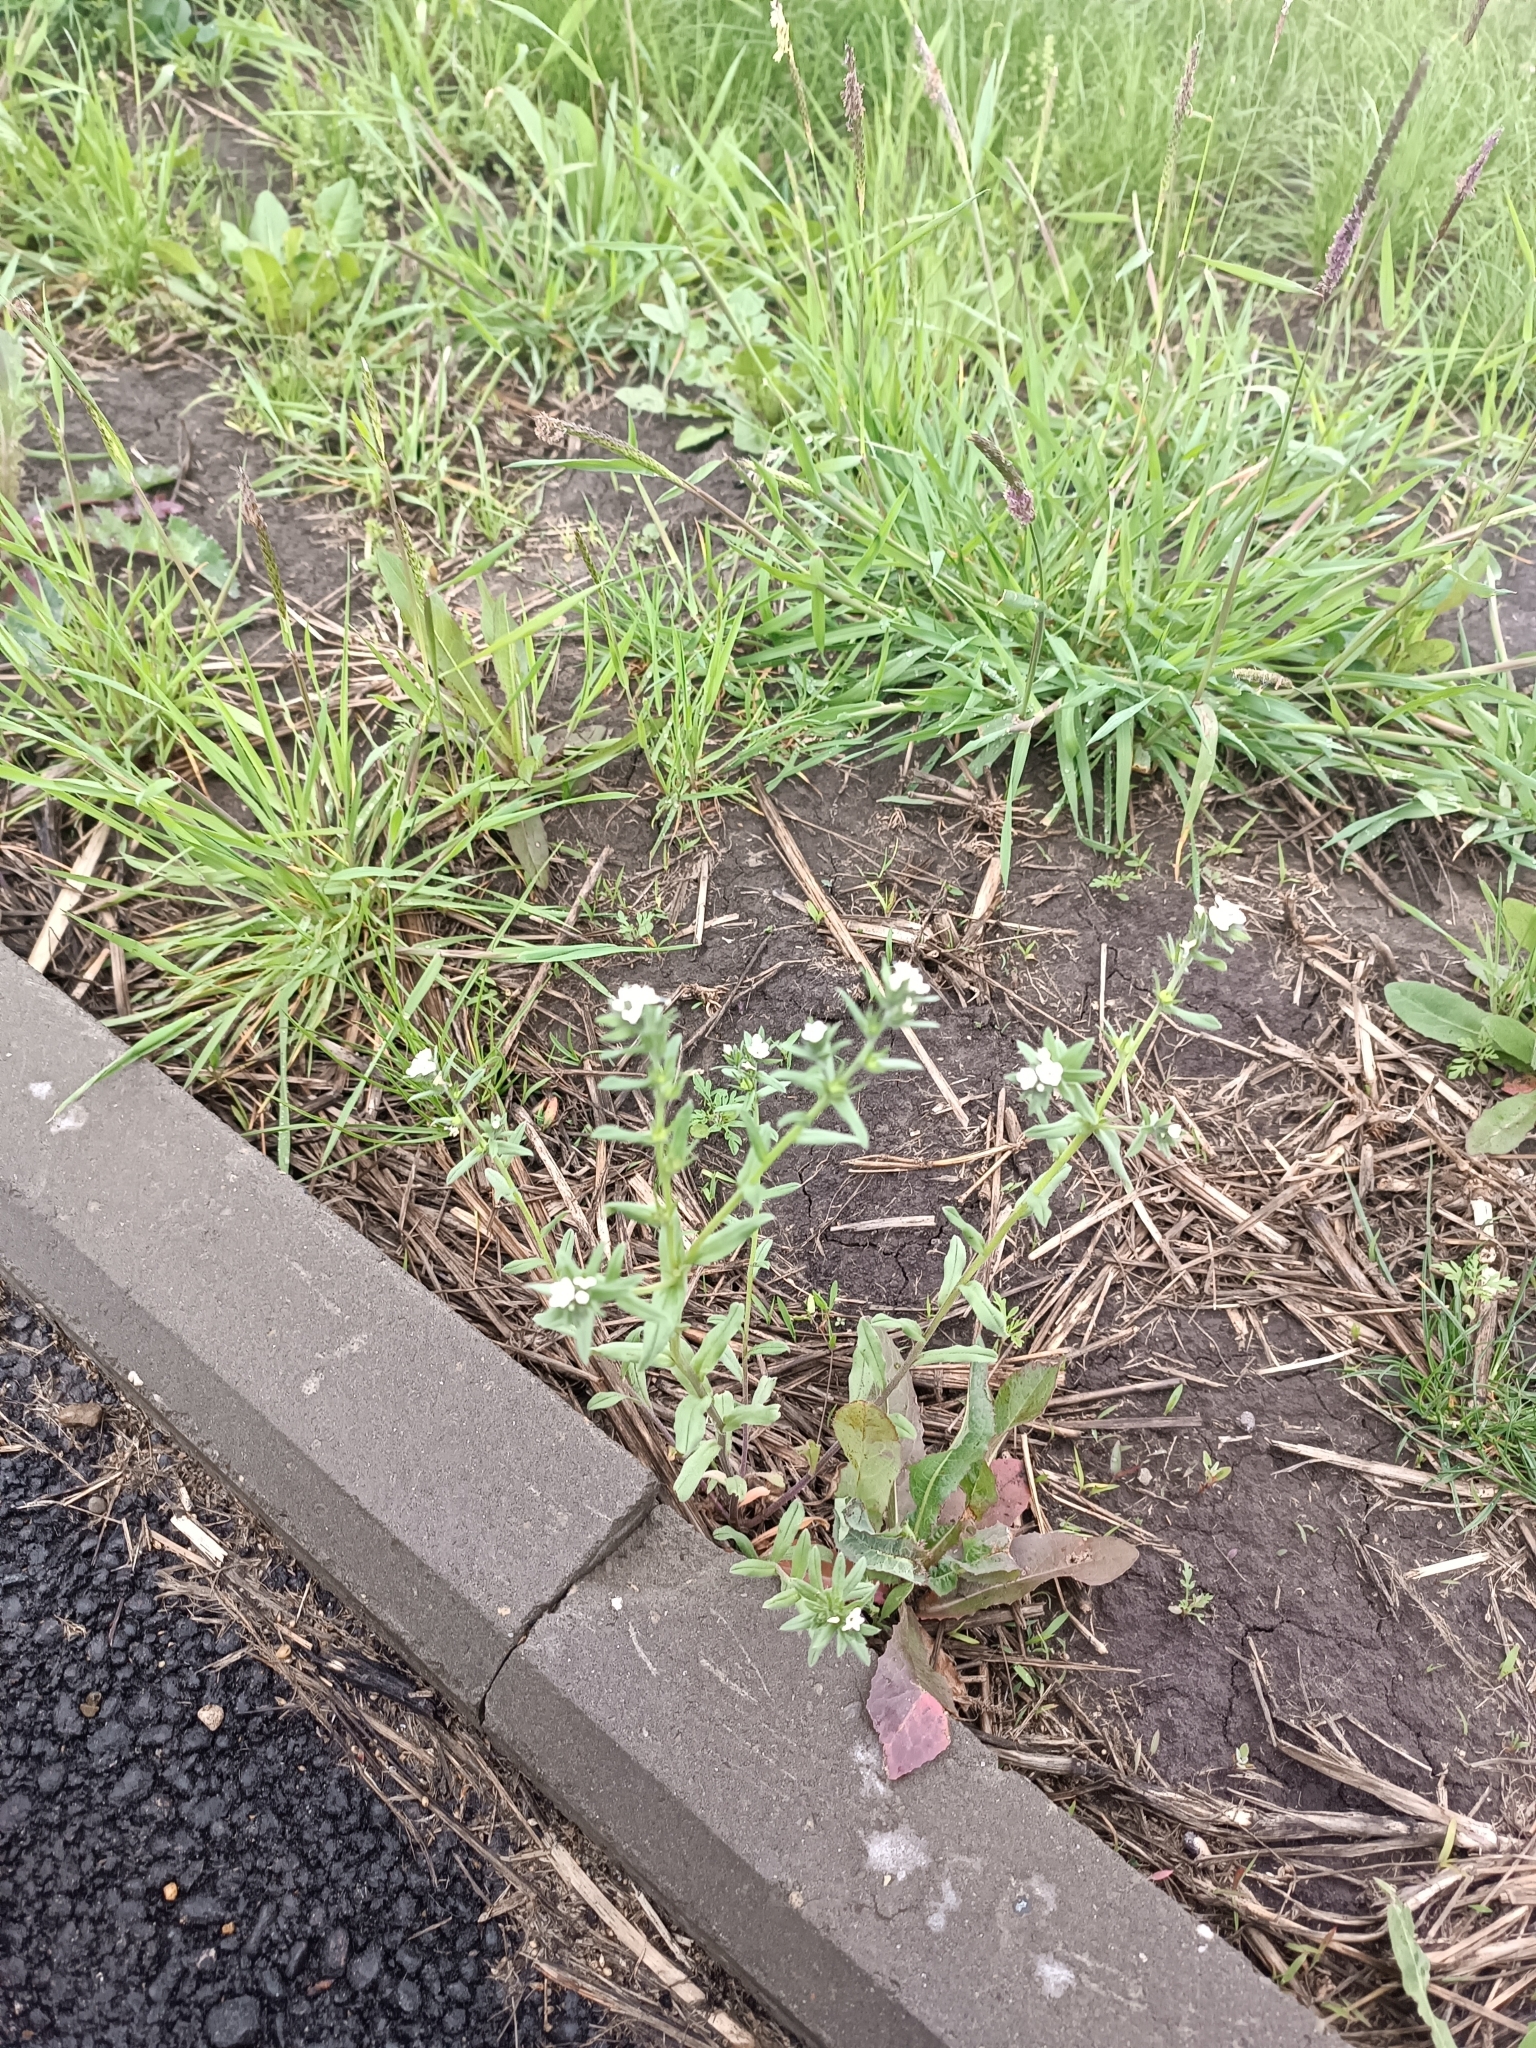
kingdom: Plantae
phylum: Tracheophyta
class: Magnoliopsida
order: Boraginales
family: Boraginaceae
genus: Buglossoides
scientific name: Buglossoides arvensis
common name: Corn gromwell
